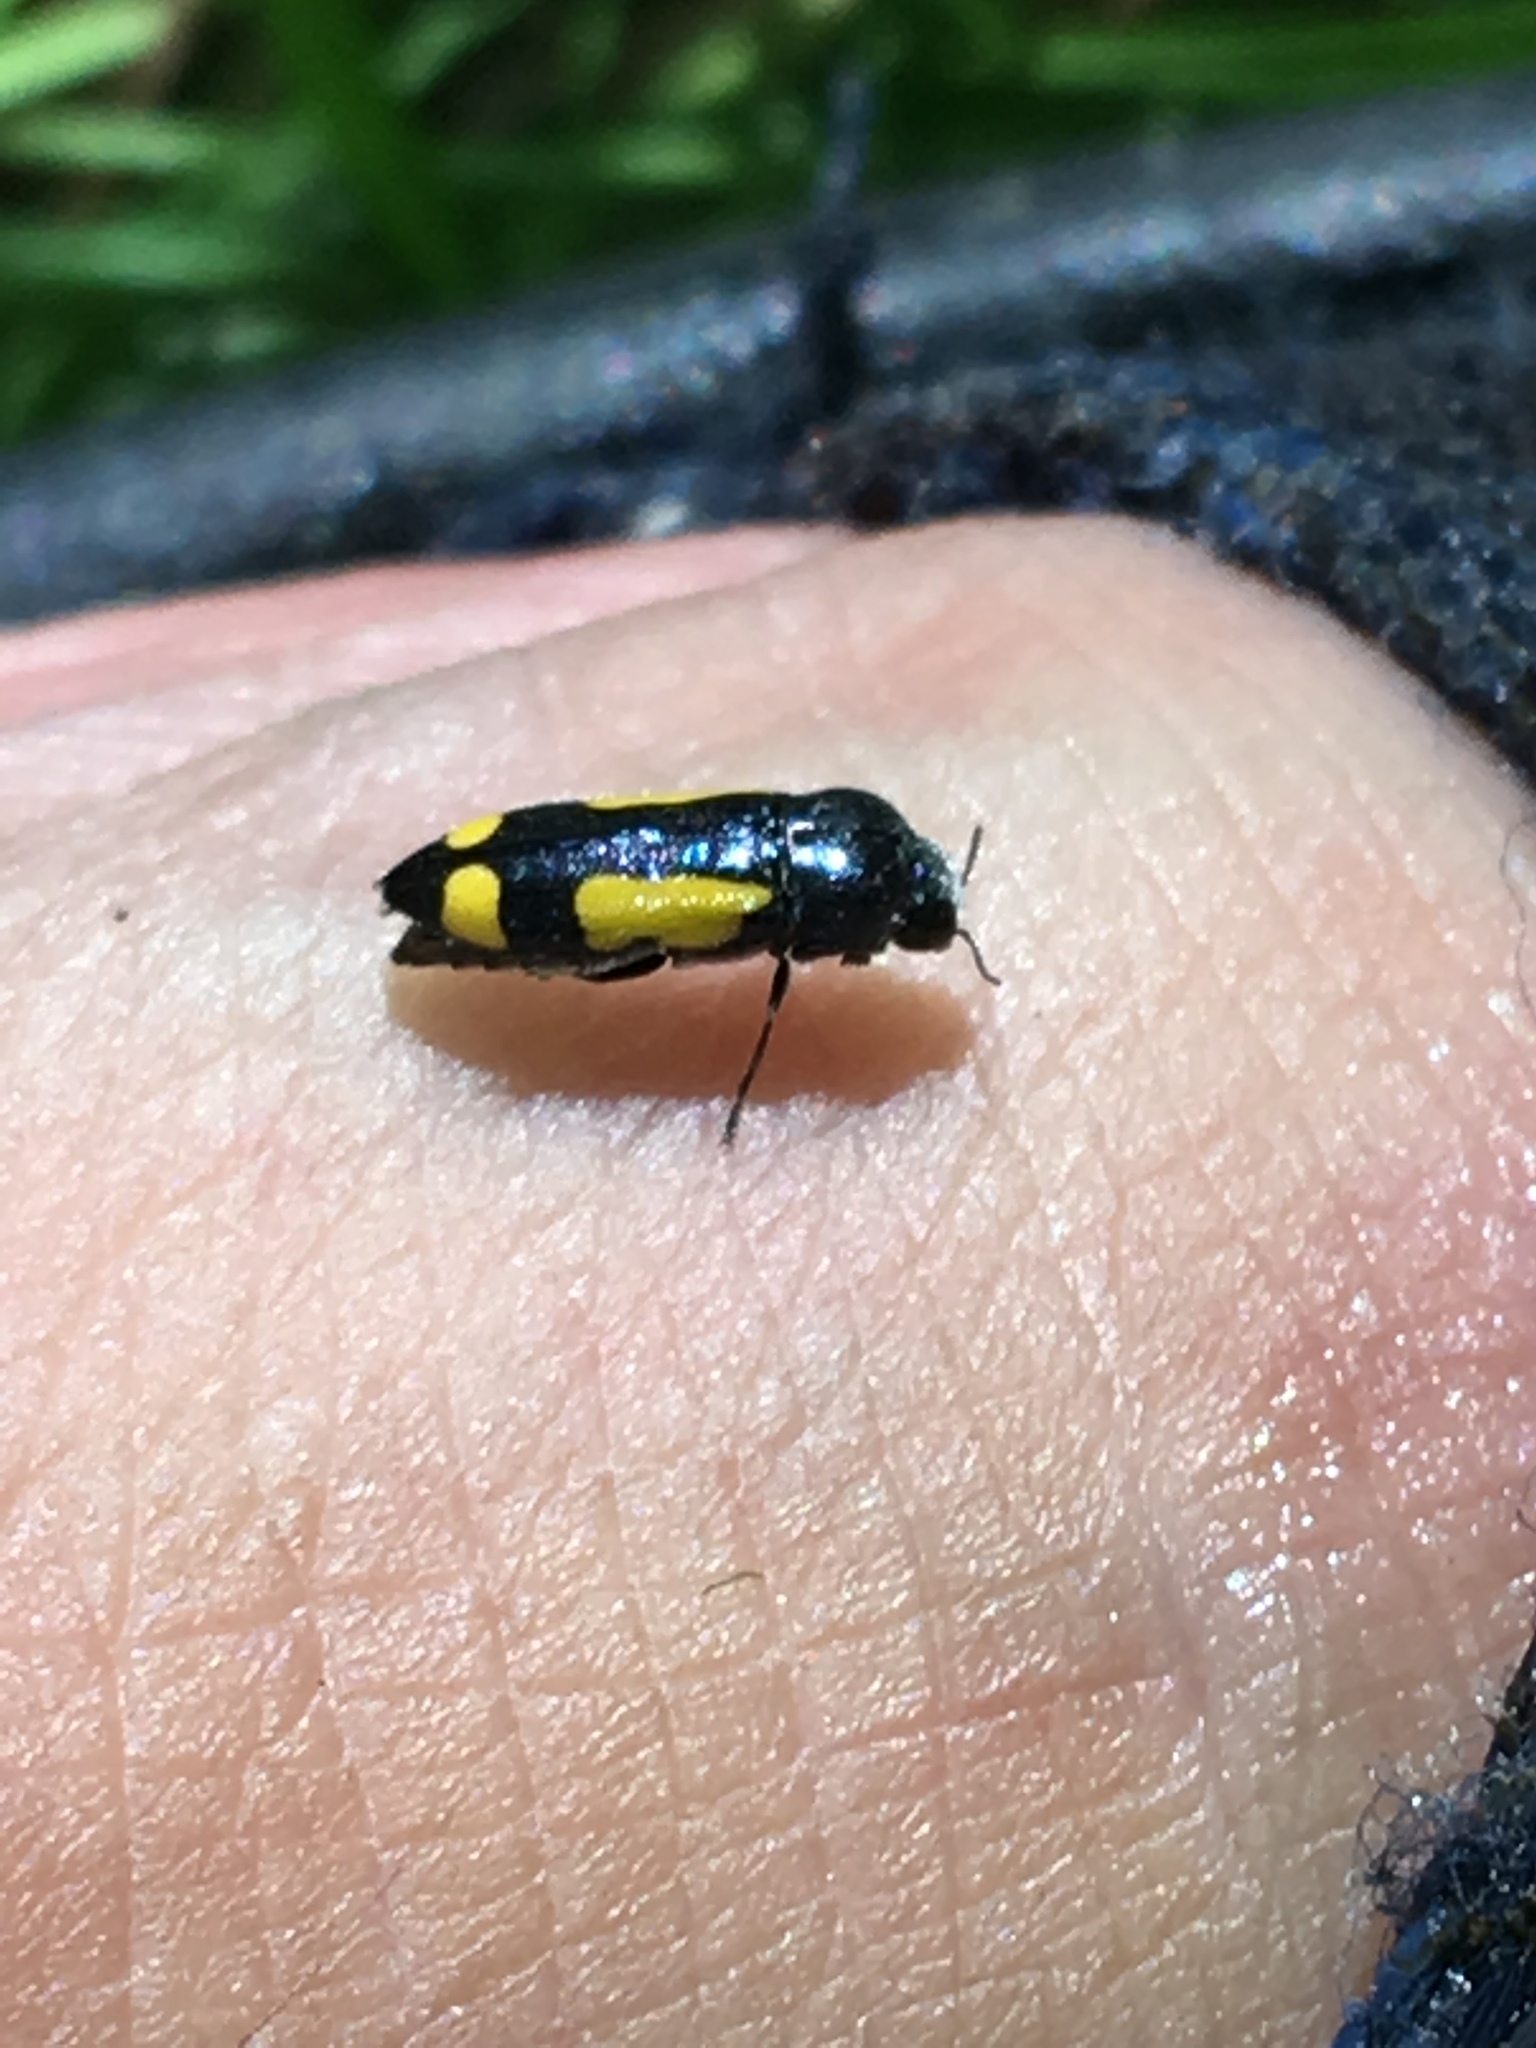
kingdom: Animalia
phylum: Arthropoda
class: Insecta
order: Coleoptera
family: Buprestidae
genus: Ptosima
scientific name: Ptosima gibbicollis
